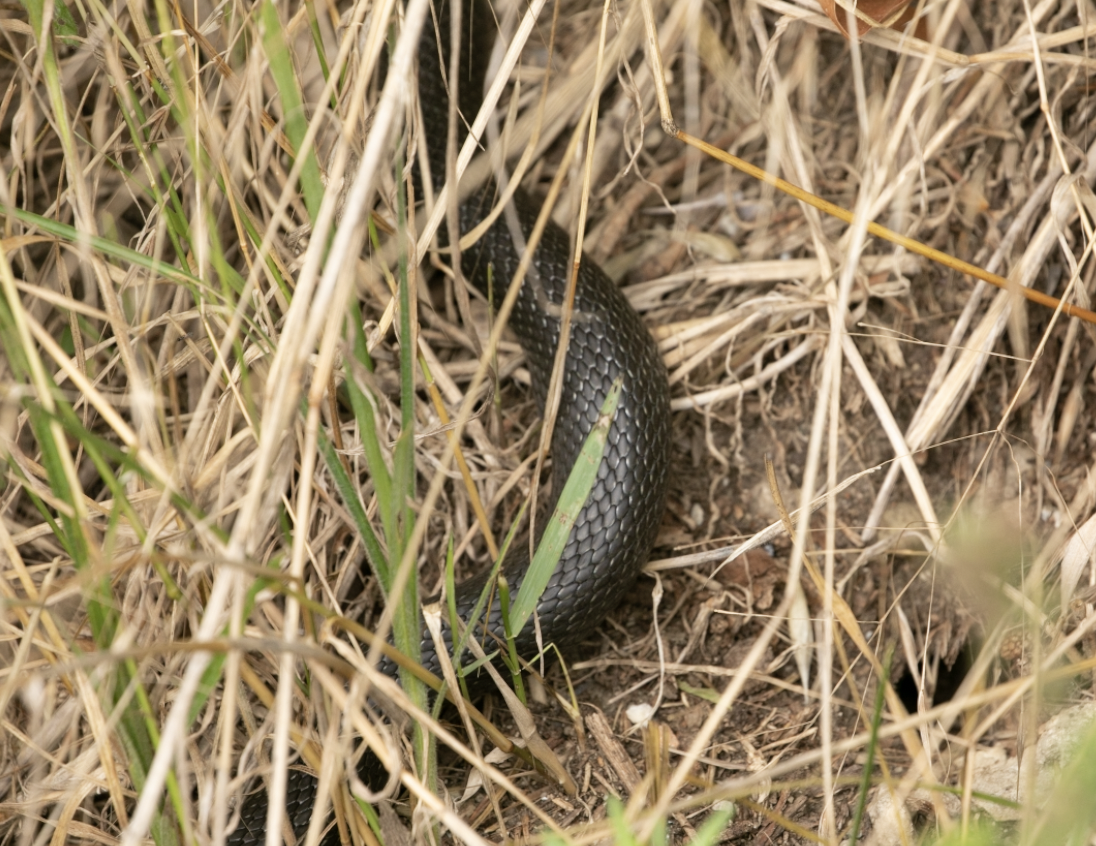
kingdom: Animalia
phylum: Chordata
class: Squamata
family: Colubridae
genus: Hierophis
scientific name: Hierophis viridiflavus
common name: Green whip snake
